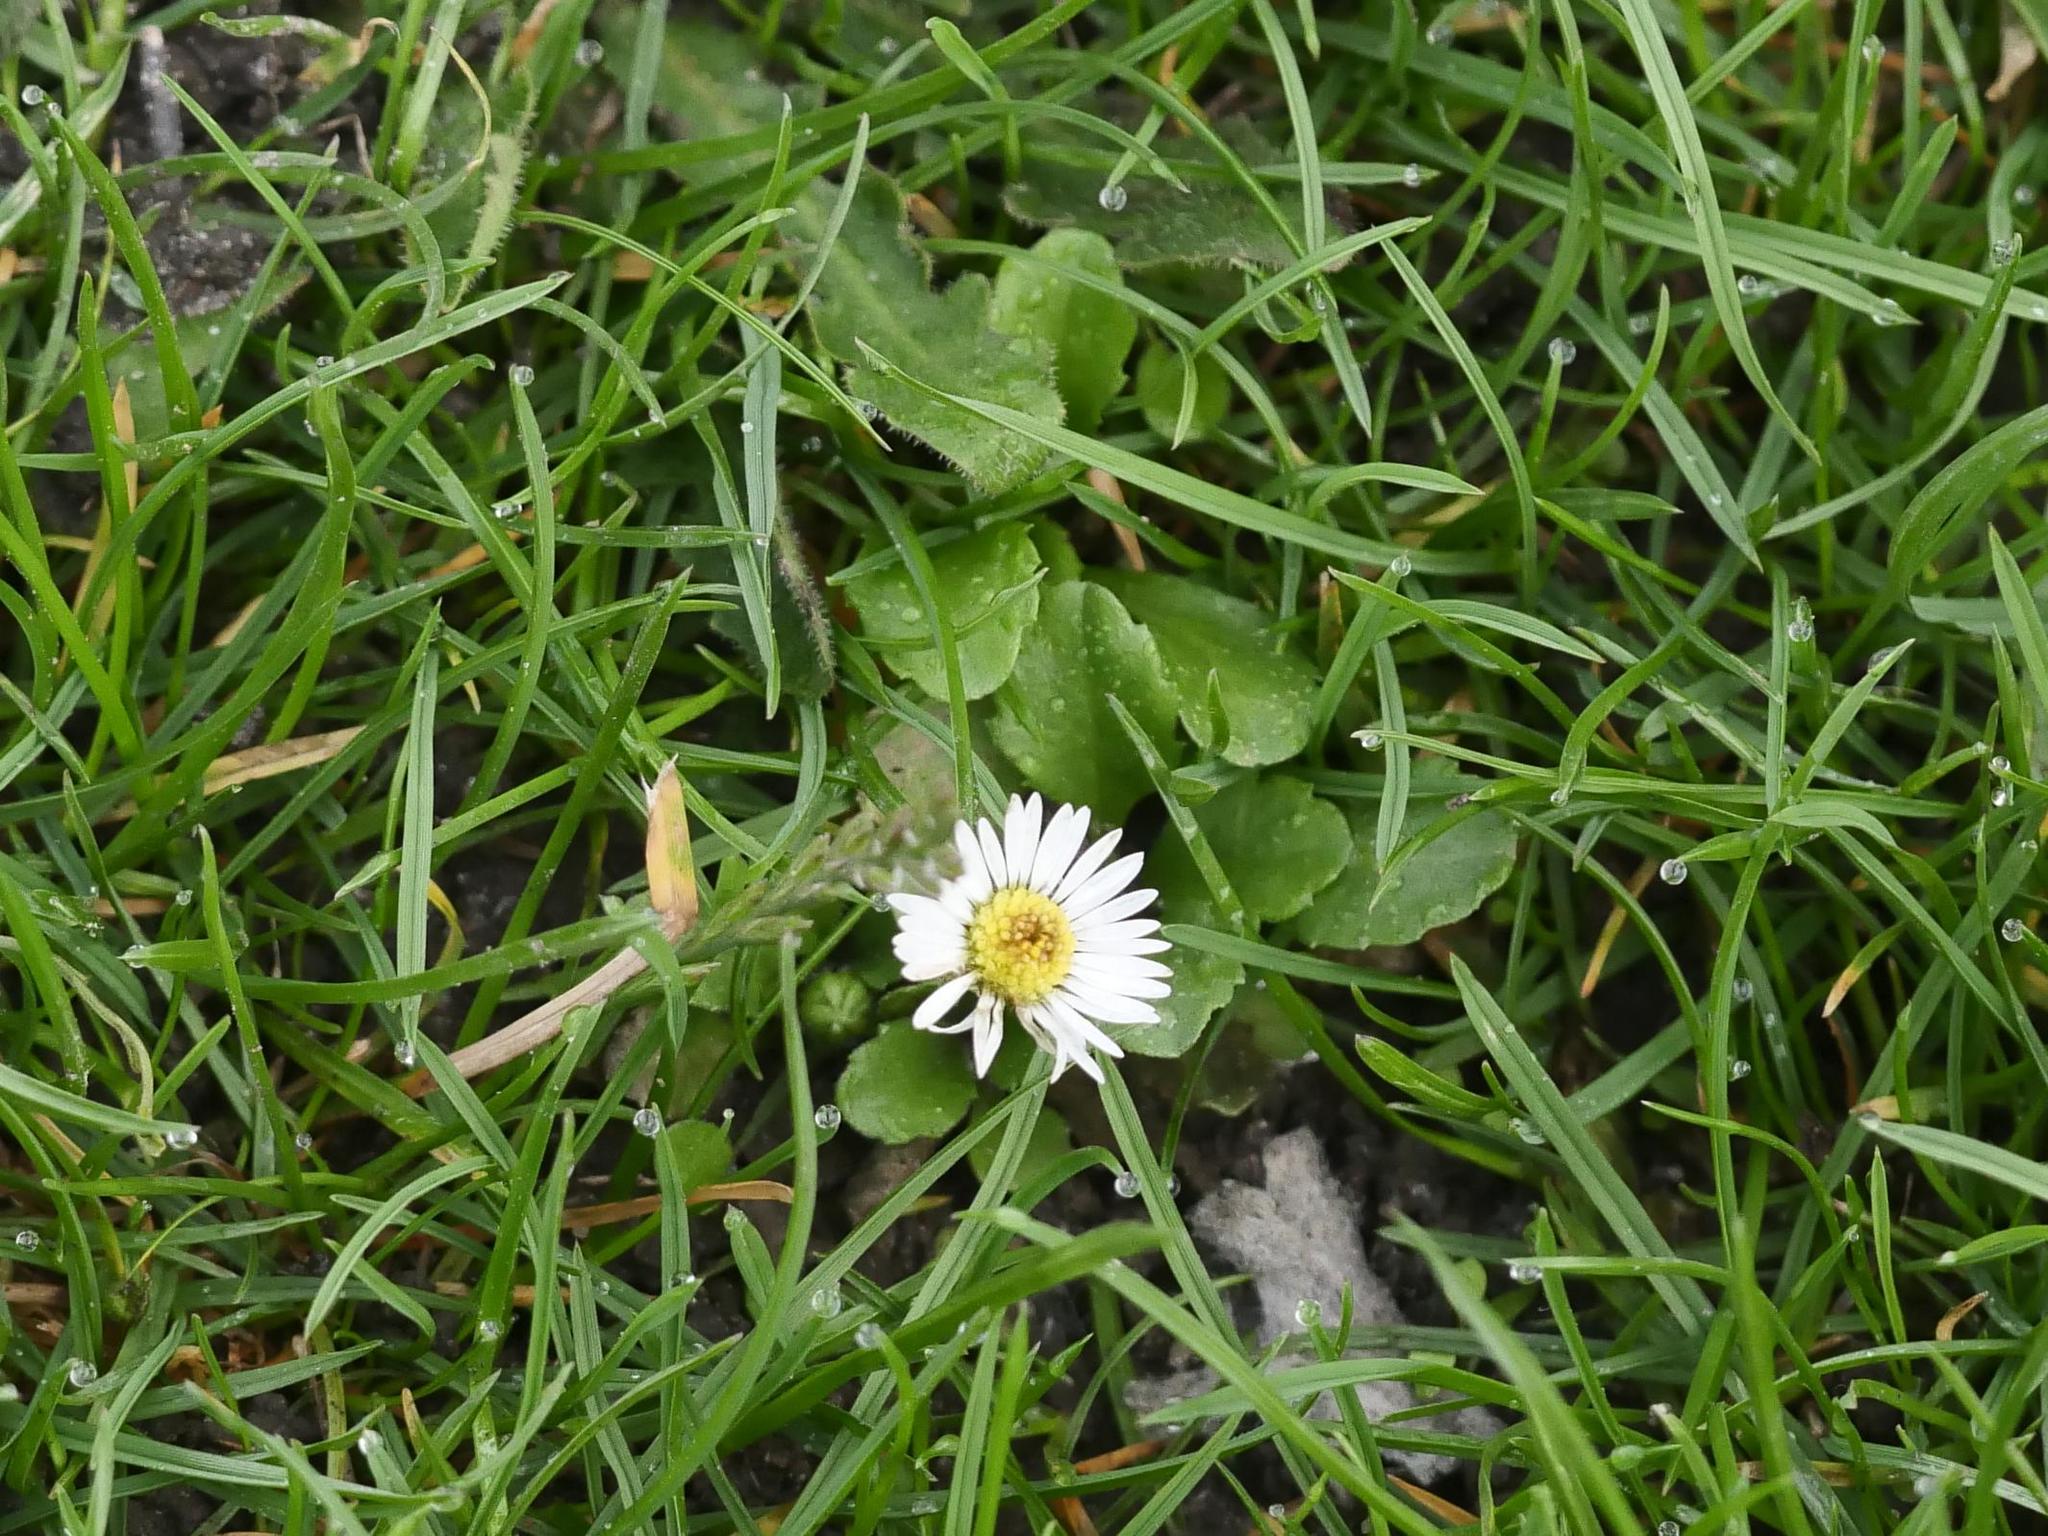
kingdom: Plantae
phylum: Tracheophyta
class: Magnoliopsida
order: Asterales
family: Asteraceae
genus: Bellis
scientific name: Bellis perennis
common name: Lawndaisy
